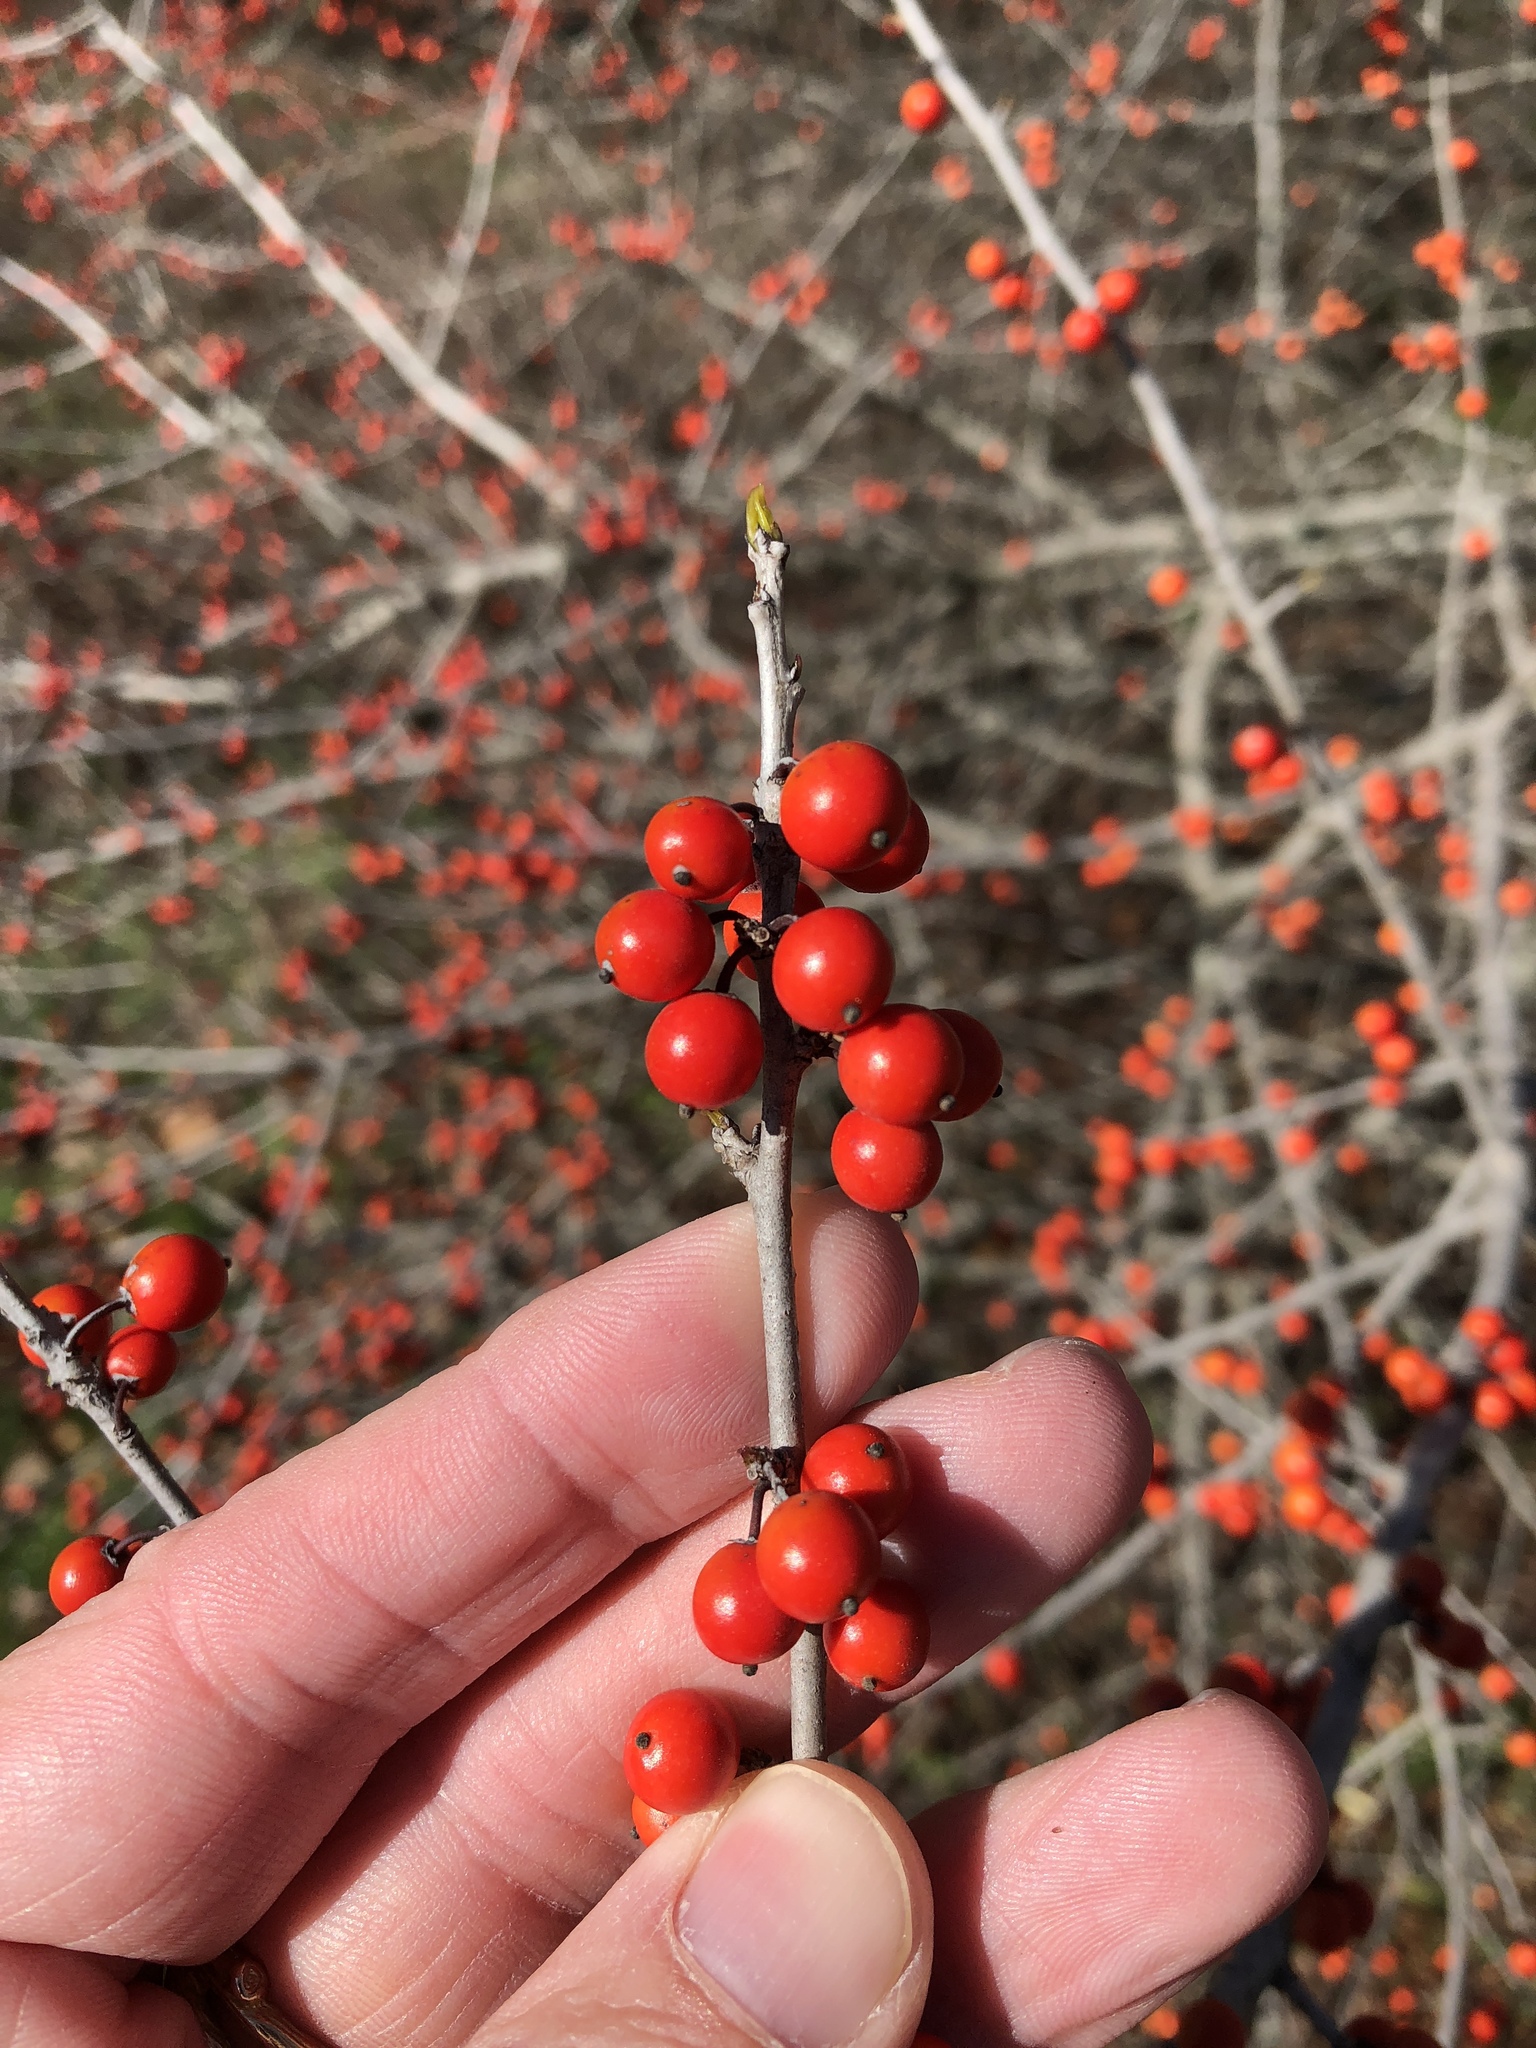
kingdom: Plantae
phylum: Tracheophyta
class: Magnoliopsida
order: Aquifoliales
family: Aquifoliaceae
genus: Ilex
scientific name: Ilex decidua
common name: Possum-haw
